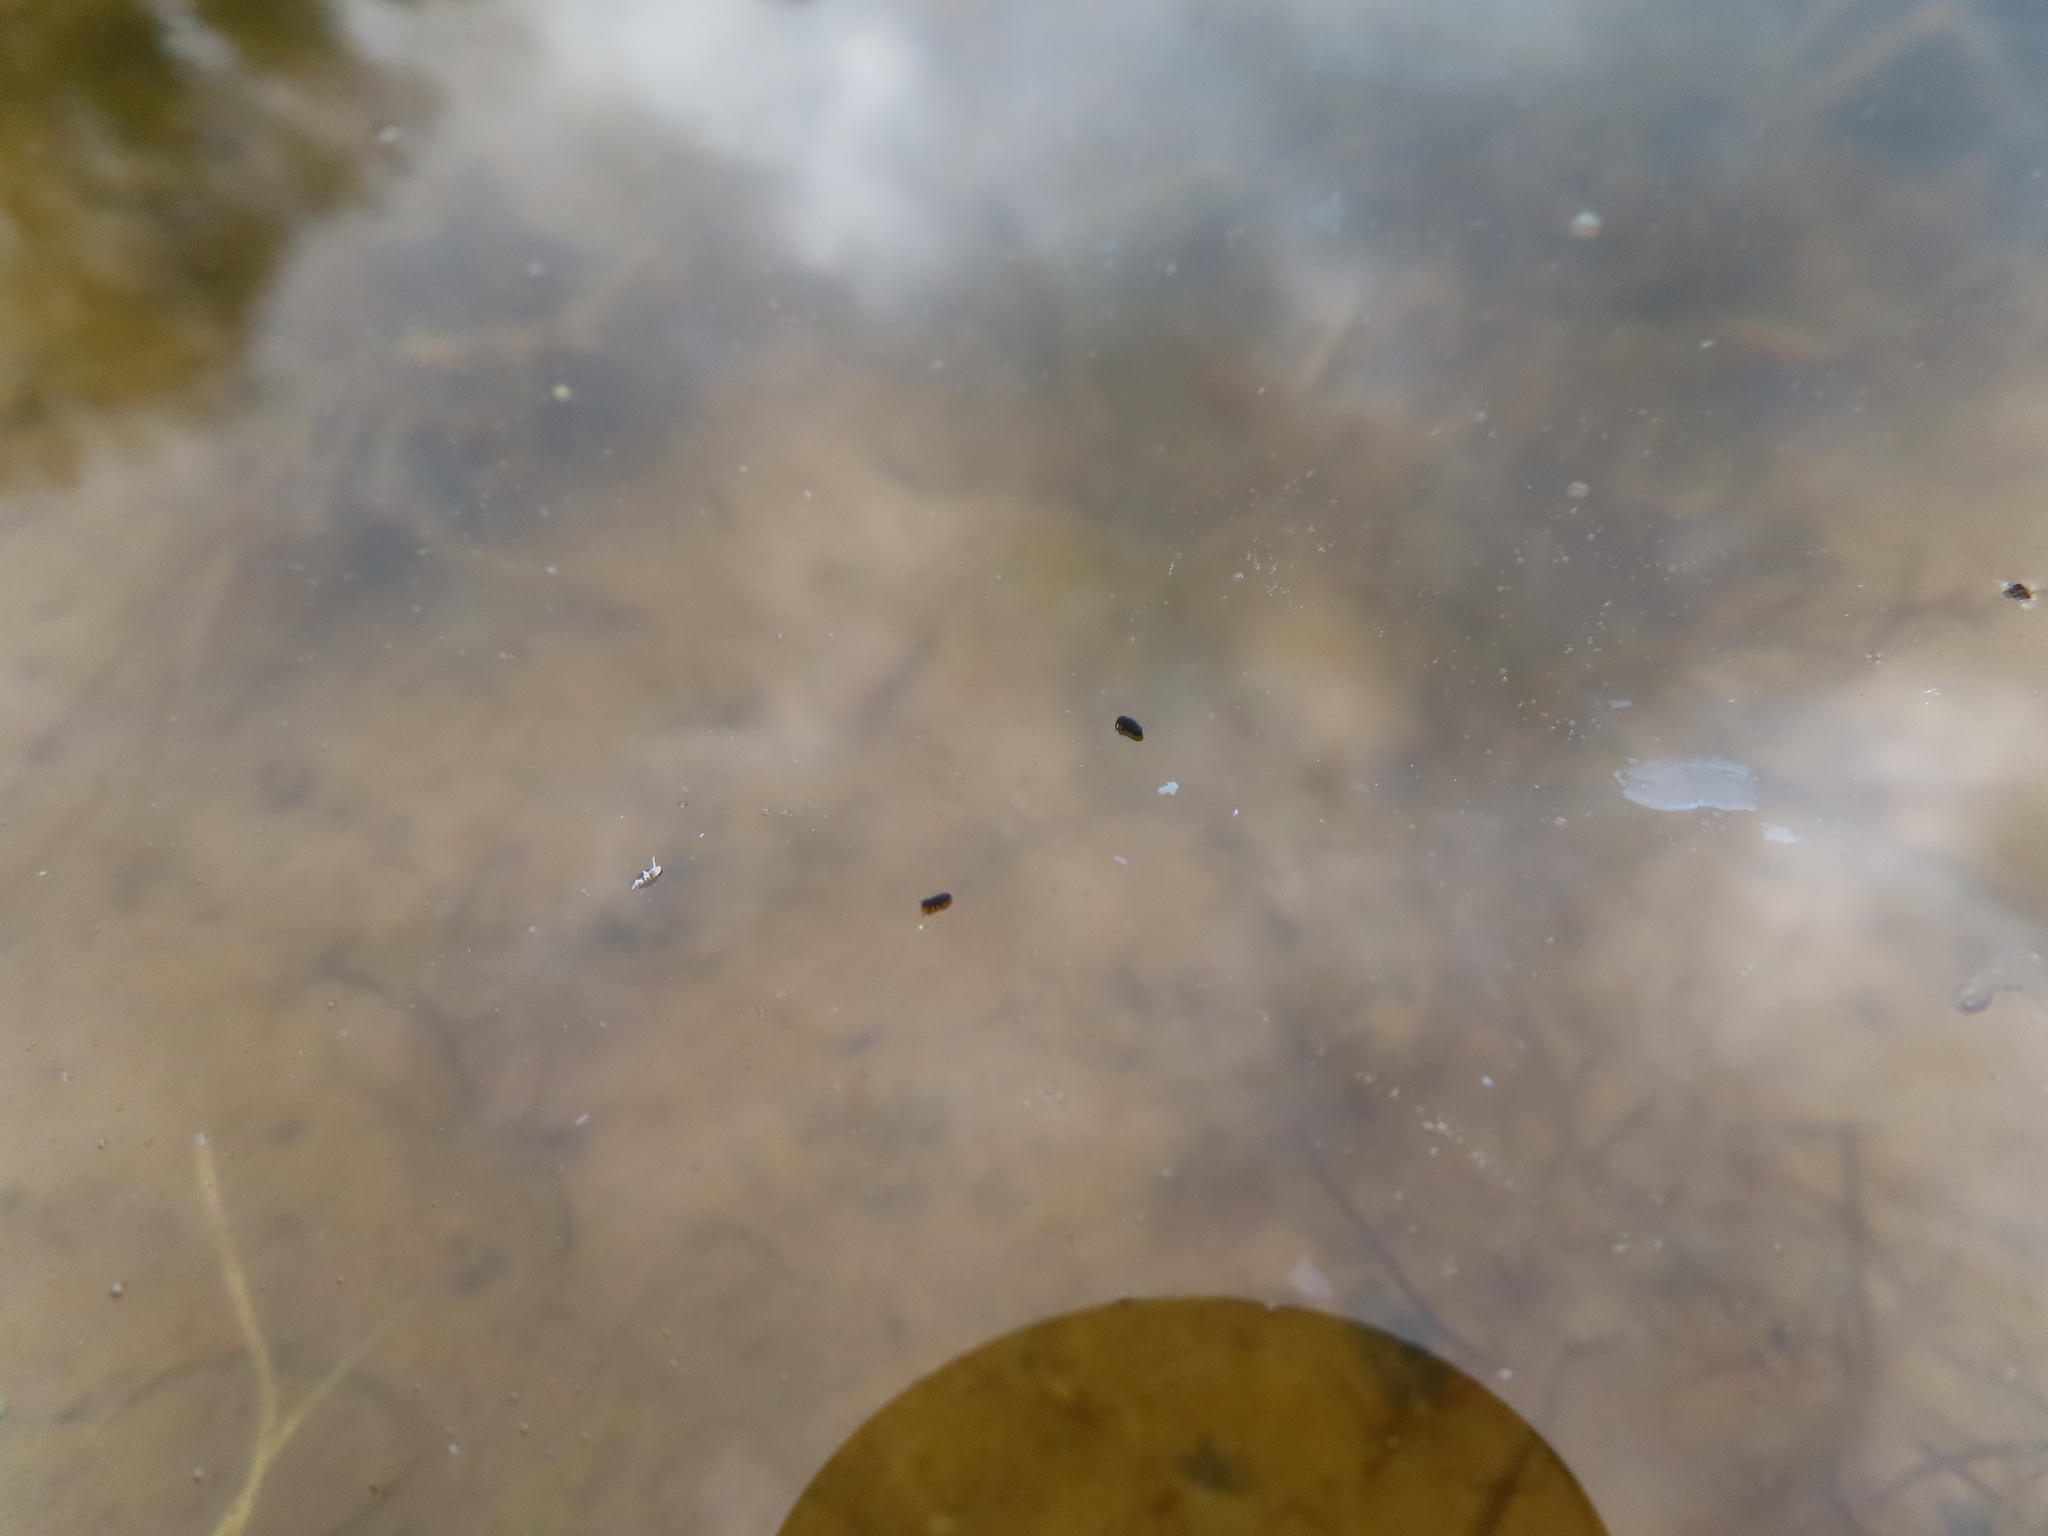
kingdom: Animalia
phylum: Arthropoda
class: Collembola
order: Poduromorpha
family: Poduridae
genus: Podura
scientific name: Podura aquatica
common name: Water springtail
